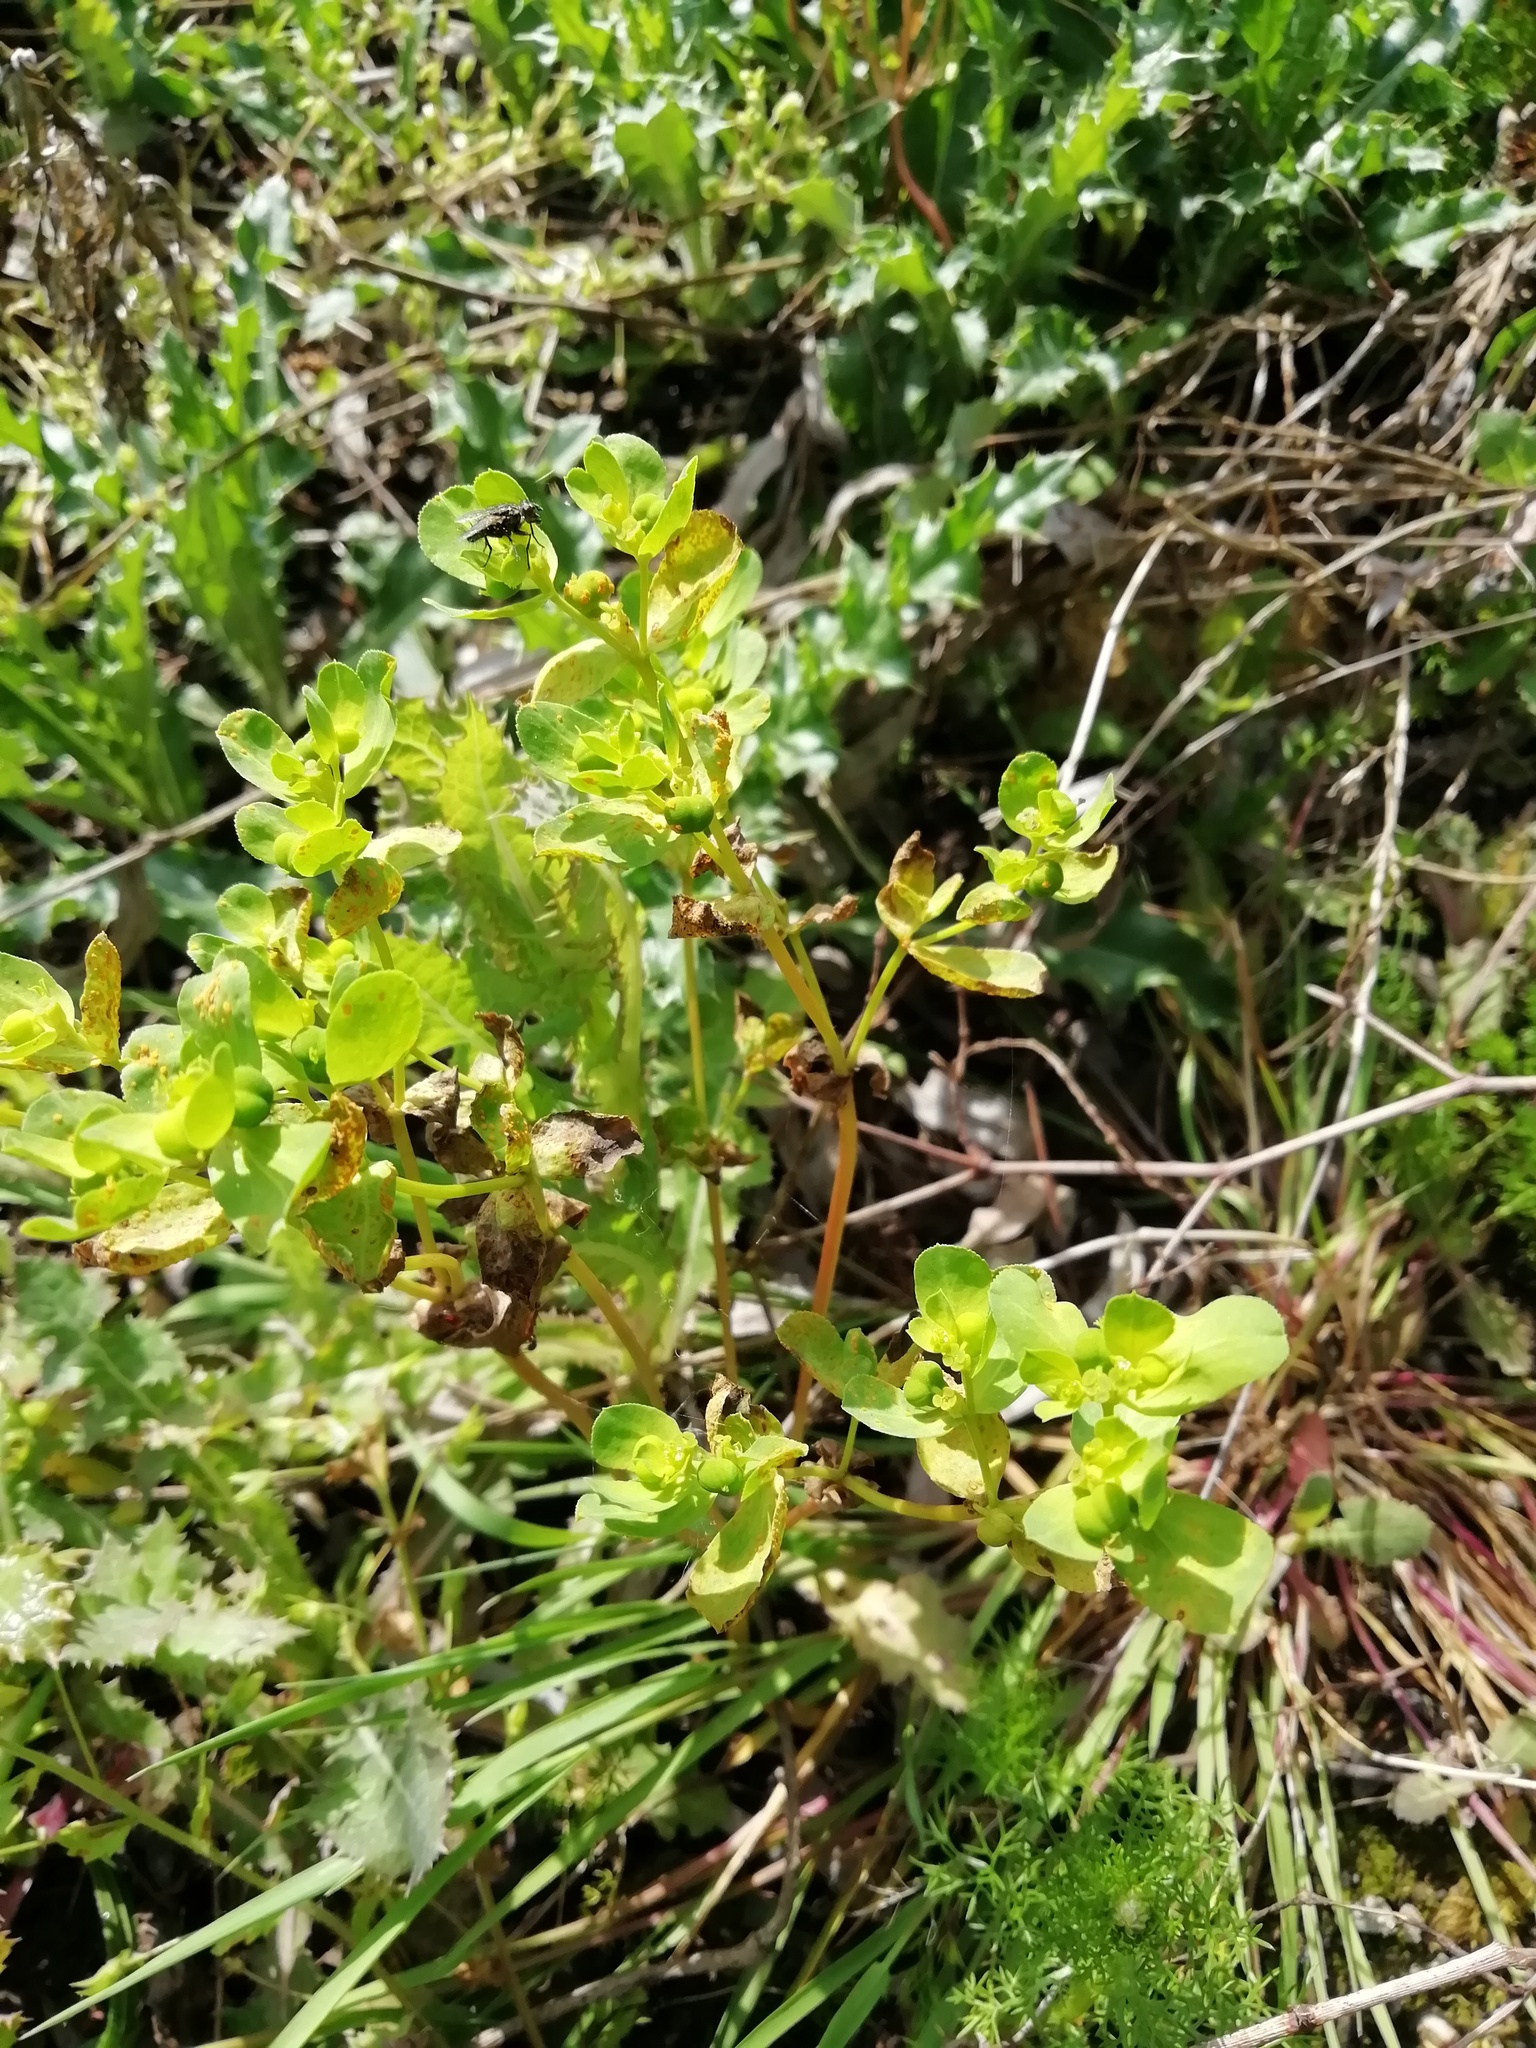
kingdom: Plantae
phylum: Tracheophyta
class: Magnoliopsida
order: Malpighiales
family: Euphorbiaceae
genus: Euphorbia
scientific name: Euphorbia helioscopia
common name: Sun spurge
